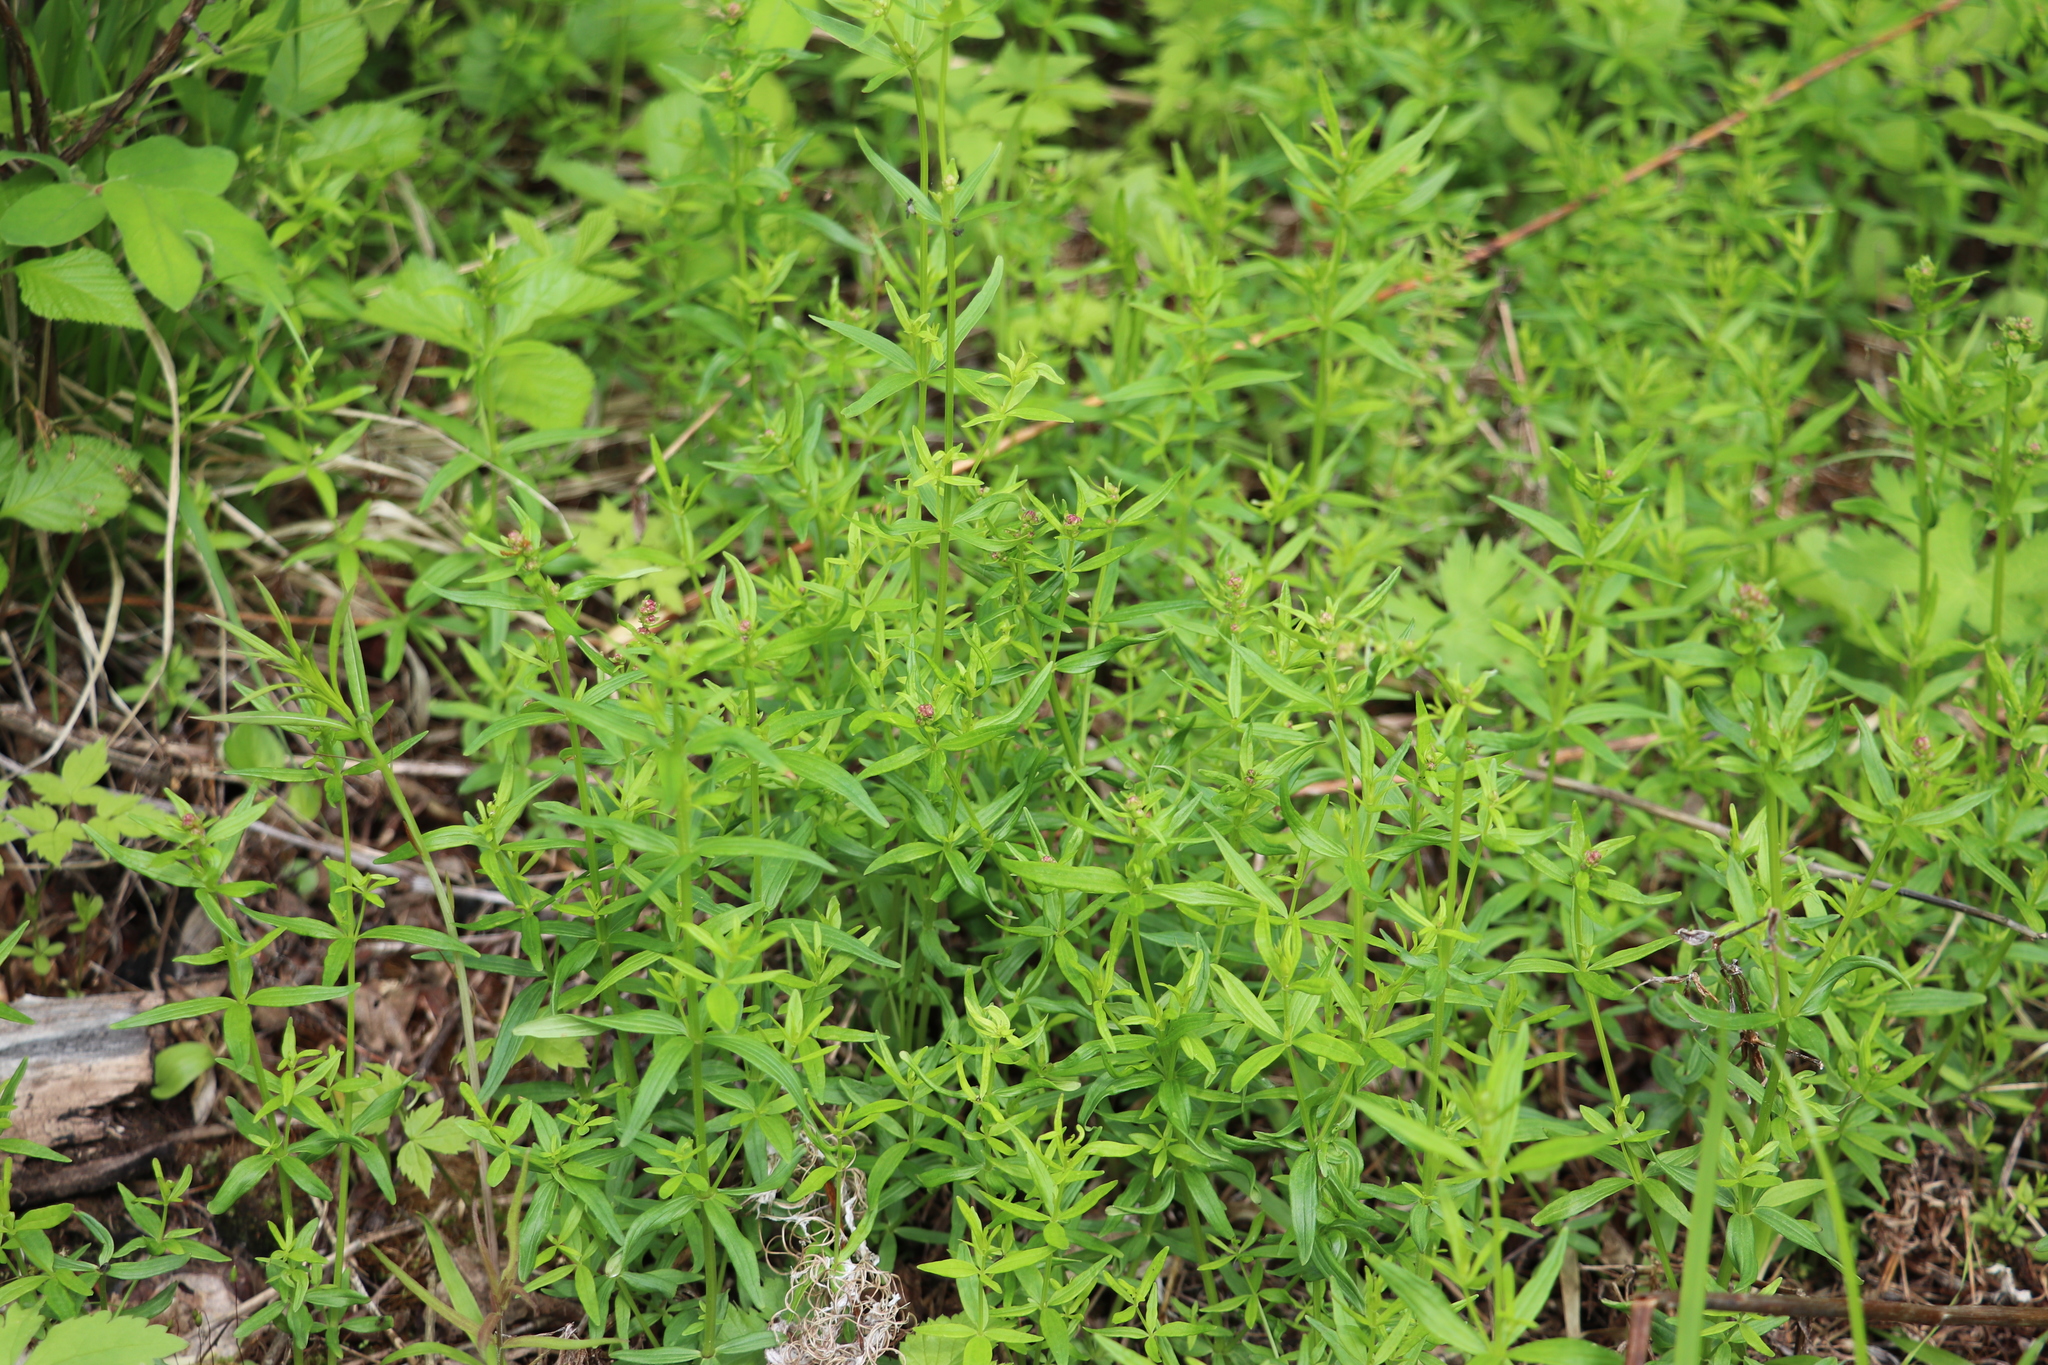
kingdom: Plantae
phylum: Tracheophyta
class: Magnoliopsida
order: Gentianales
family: Rubiaceae
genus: Galium
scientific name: Galium boreale
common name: Northern bedstraw
